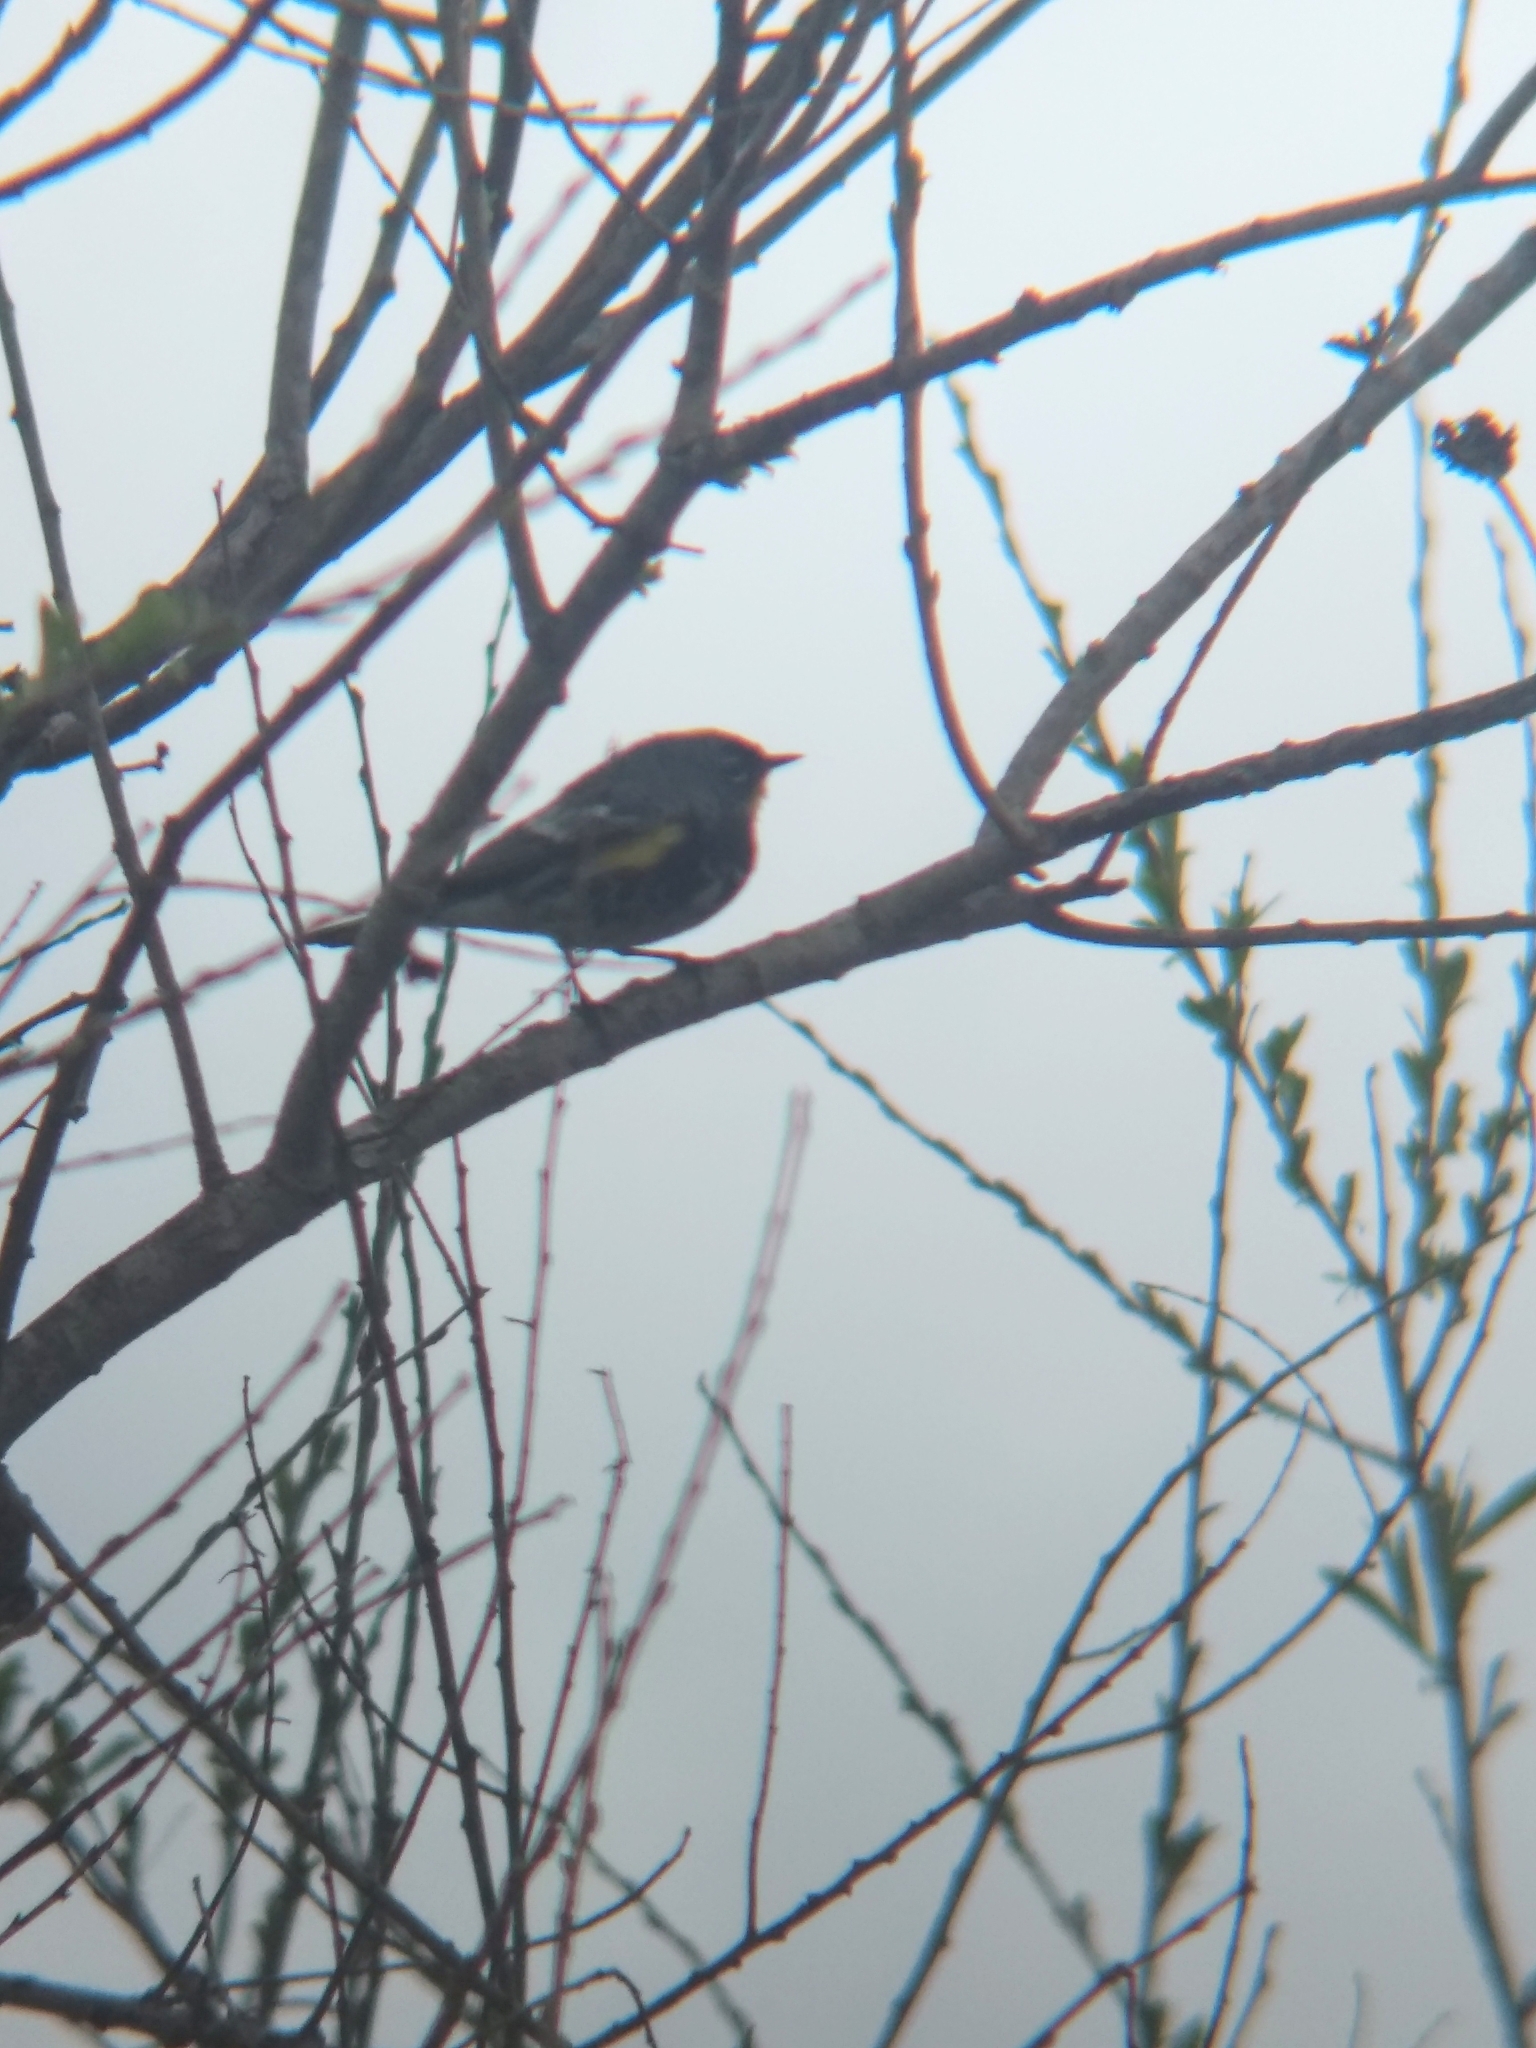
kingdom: Animalia
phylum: Chordata
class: Aves
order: Passeriformes
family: Parulidae
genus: Setophaga
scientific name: Setophaga coronata
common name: Myrtle warbler
